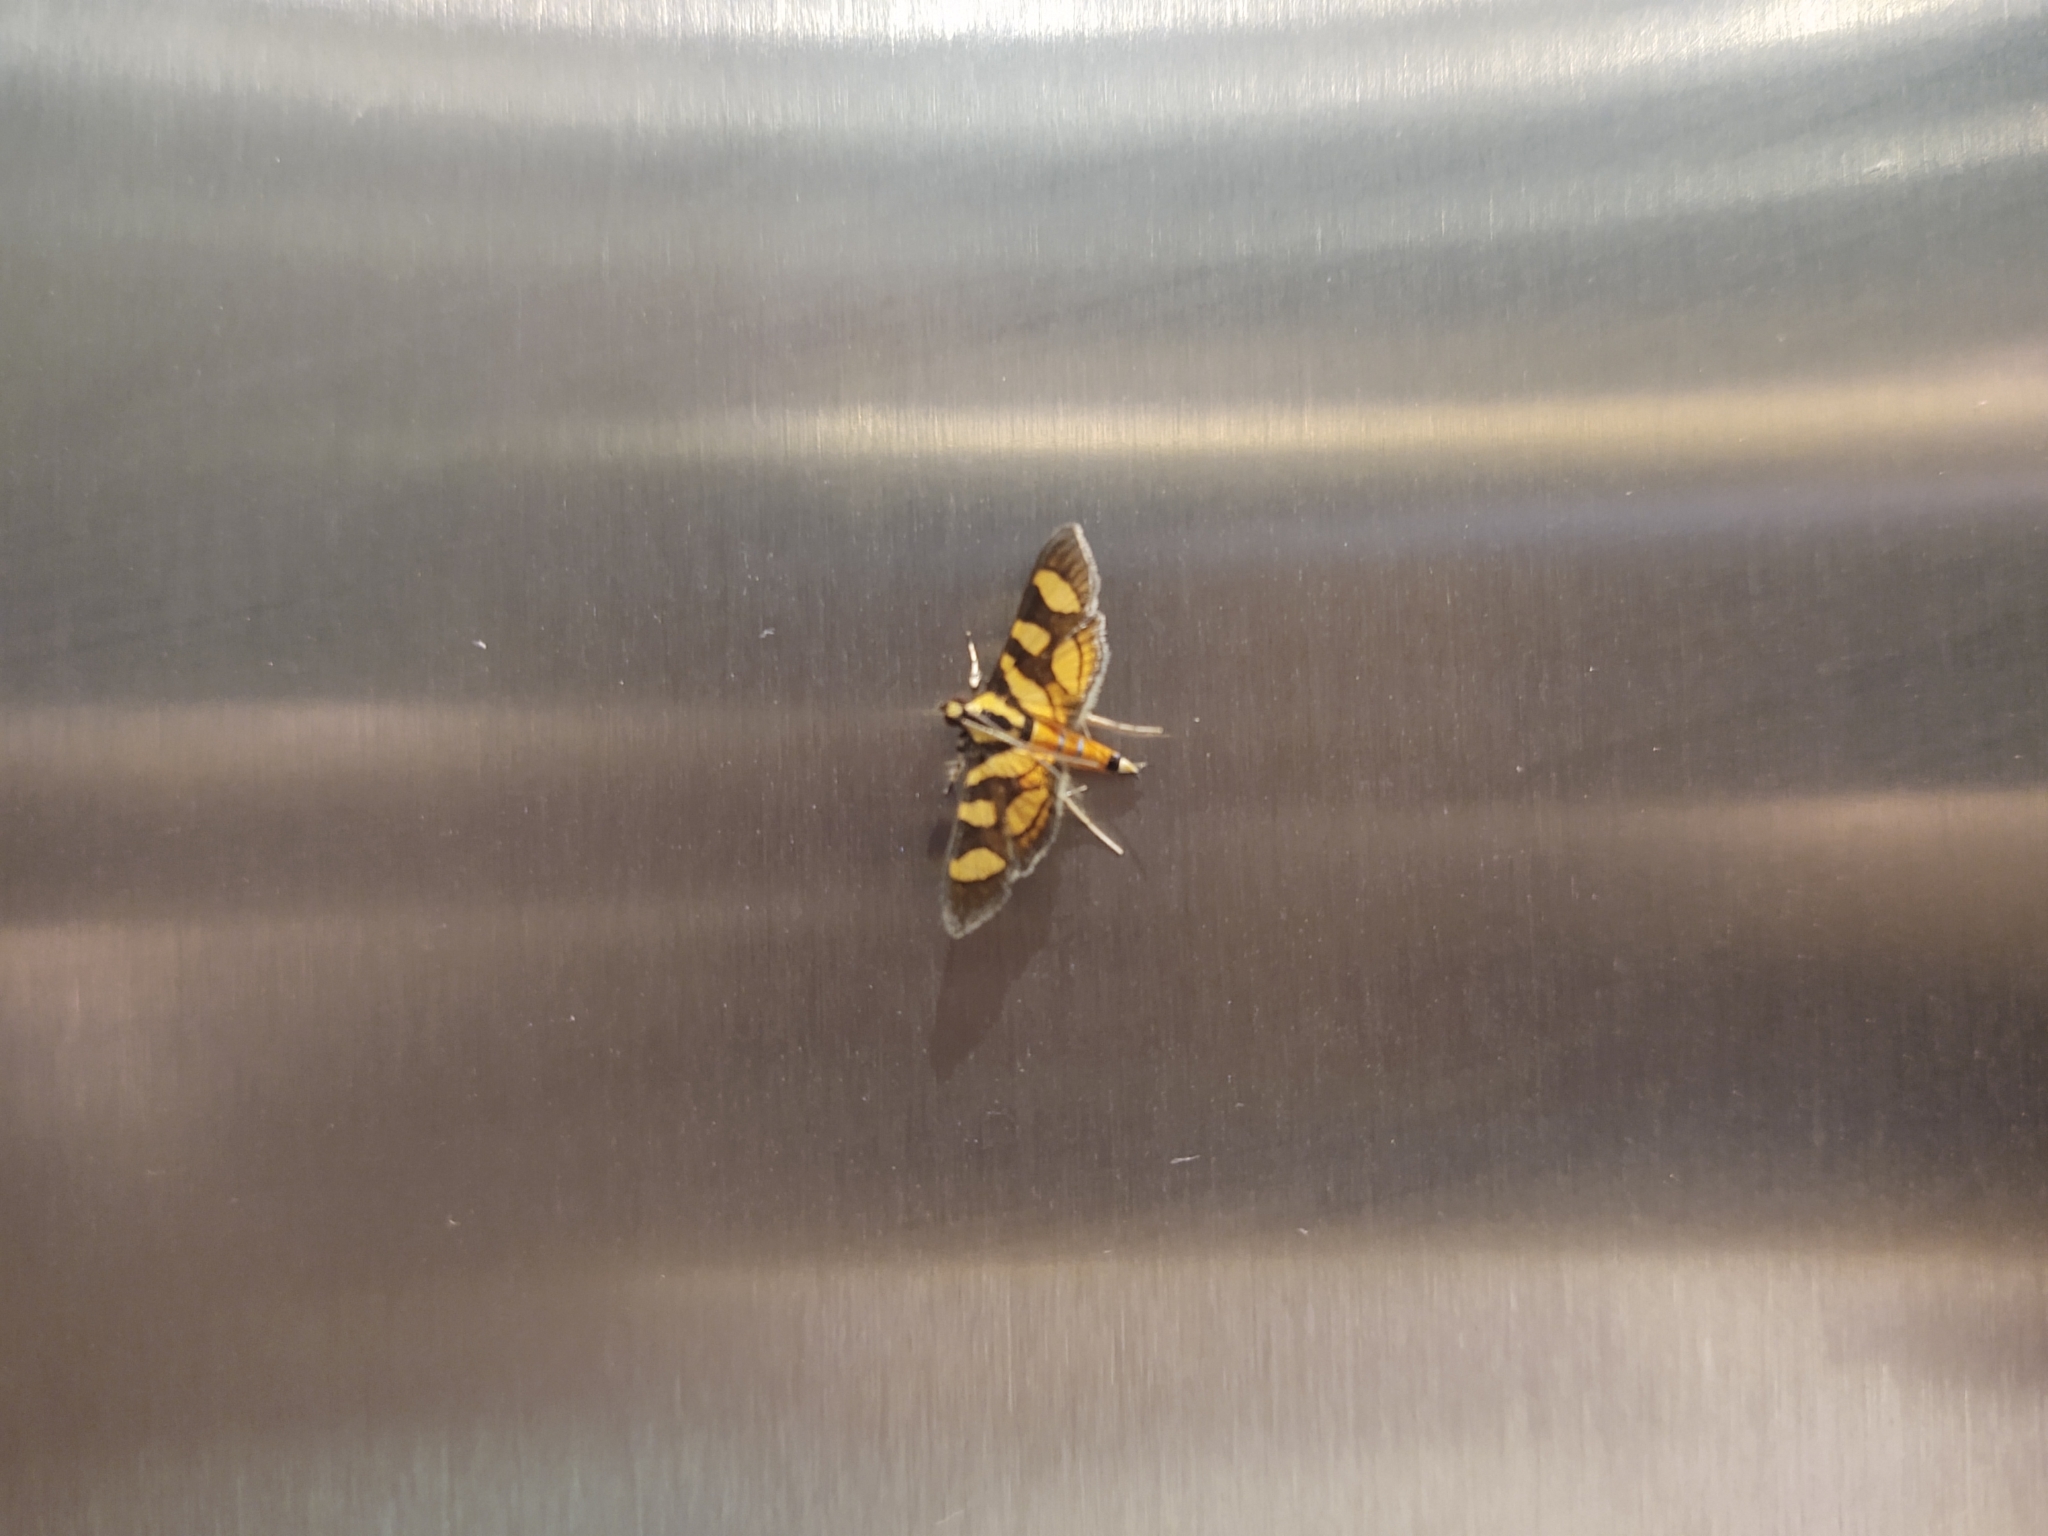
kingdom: Animalia
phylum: Arthropoda
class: Insecta
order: Lepidoptera
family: Crambidae
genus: Syngamia
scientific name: Syngamia florella
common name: Orange-spotted flower moth
